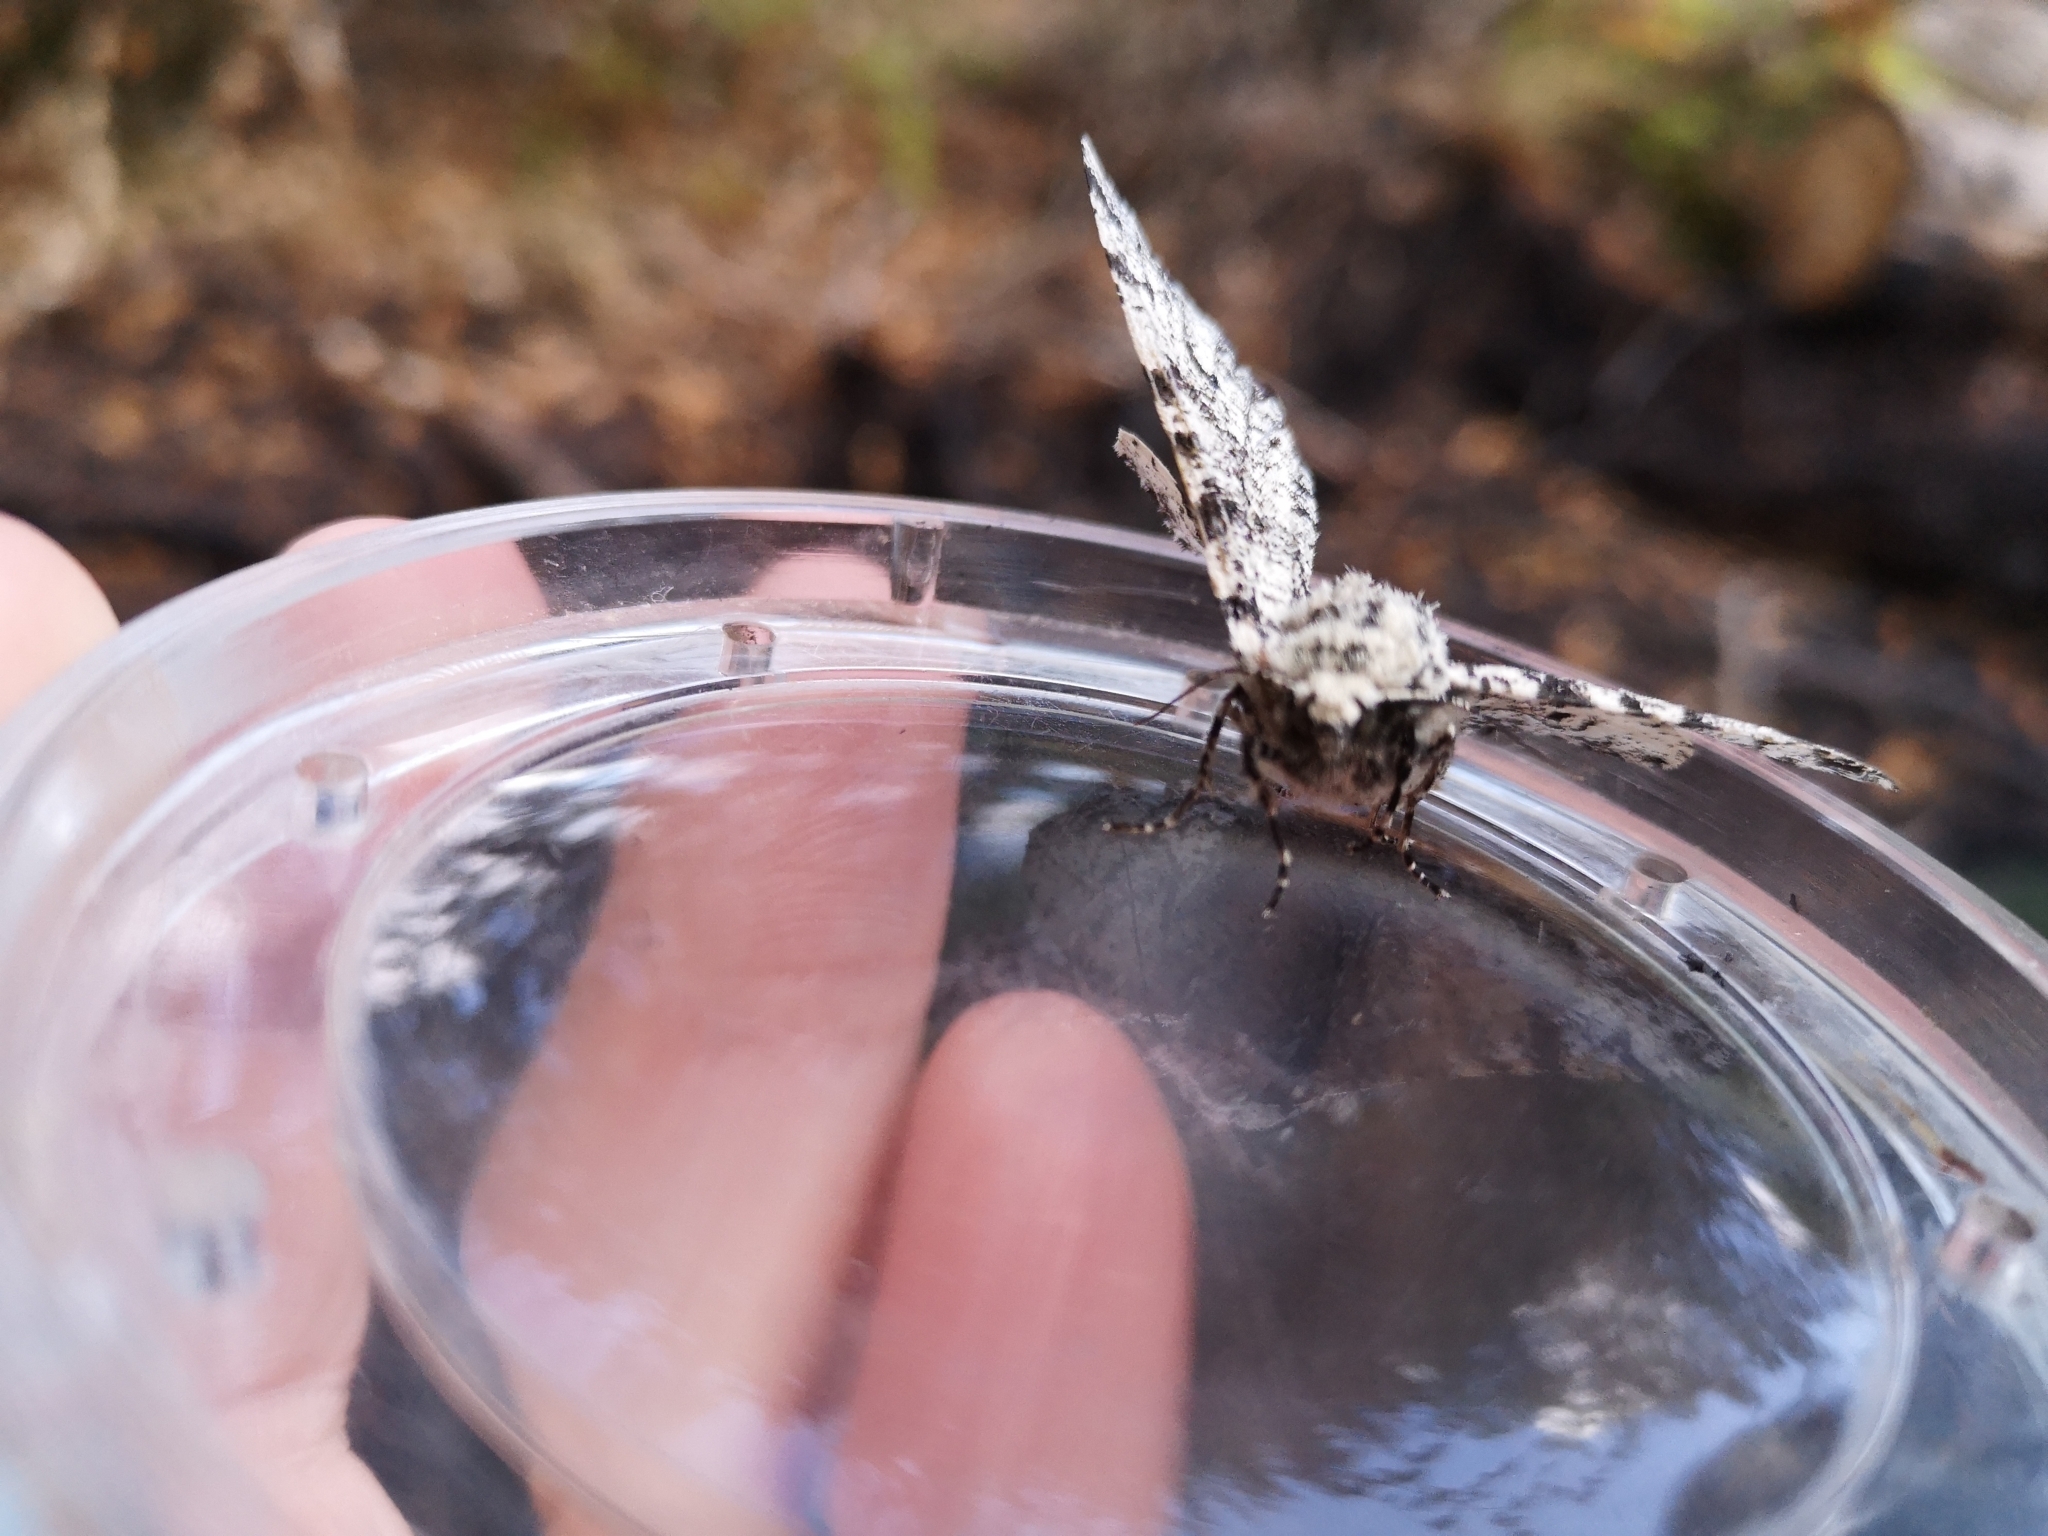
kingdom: Animalia
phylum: Arthropoda
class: Insecta
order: Lepidoptera
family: Geometridae
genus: Biston
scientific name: Biston betularia
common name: Peppered moth
